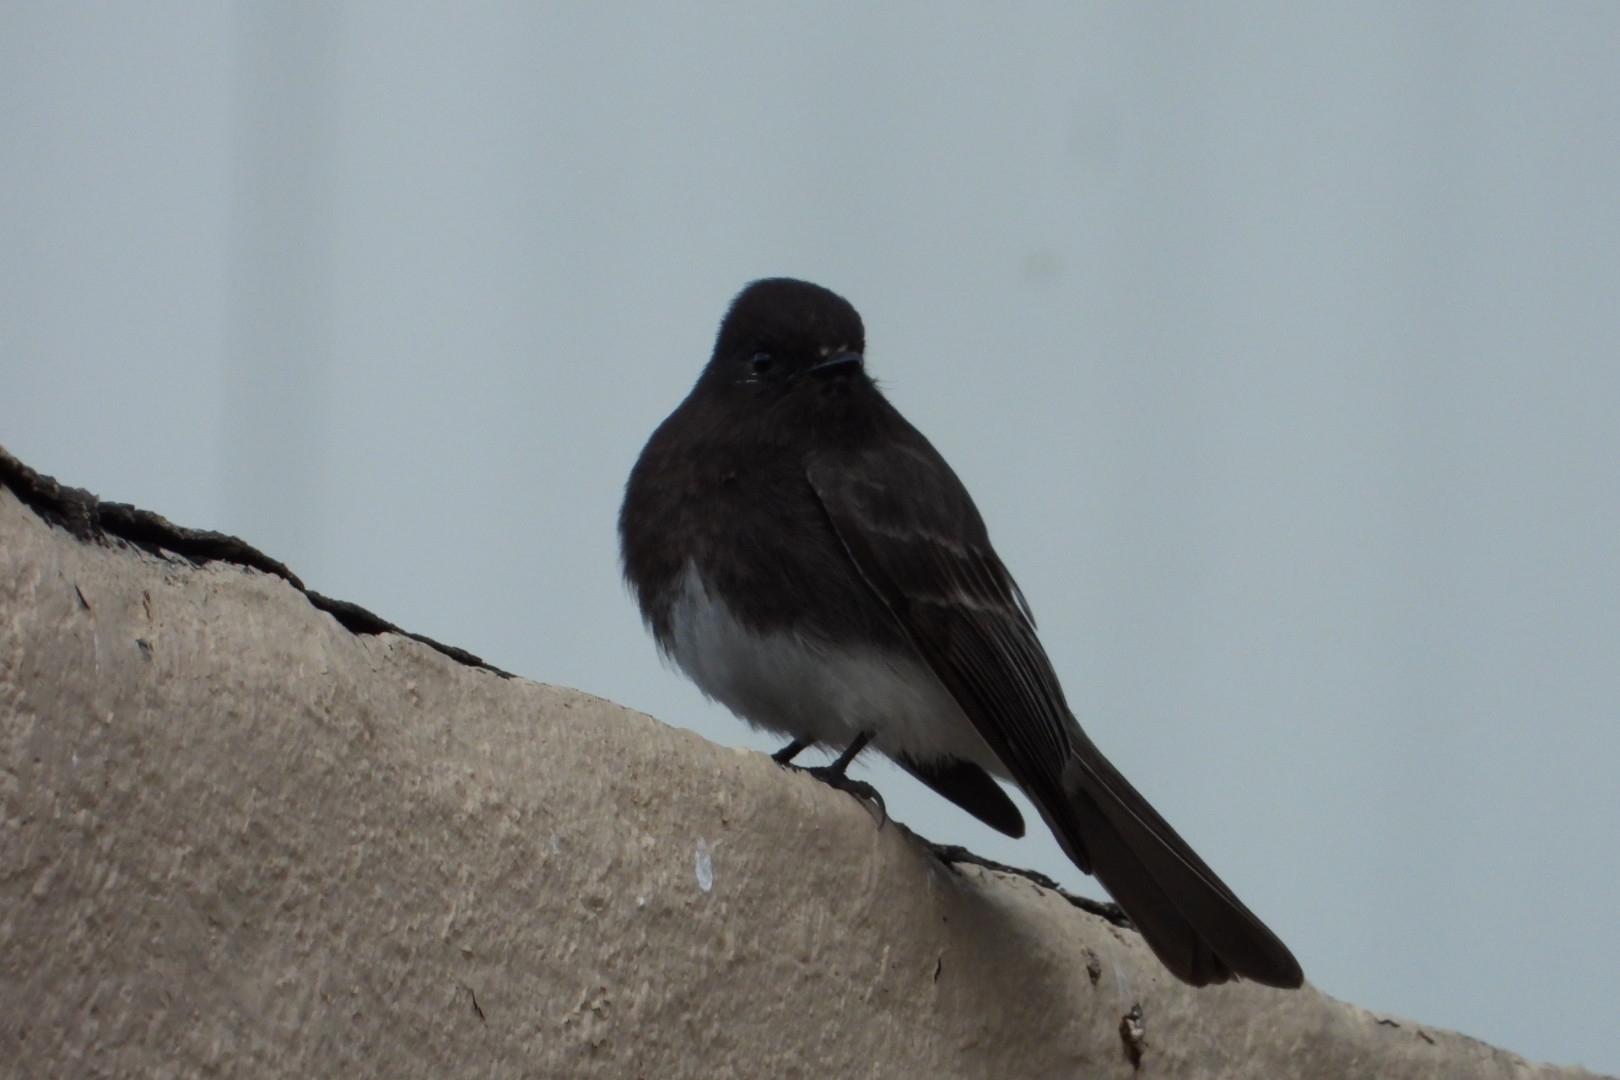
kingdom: Animalia
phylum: Chordata
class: Aves
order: Passeriformes
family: Tyrannidae
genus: Sayornis
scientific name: Sayornis nigricans
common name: Black phoebe
